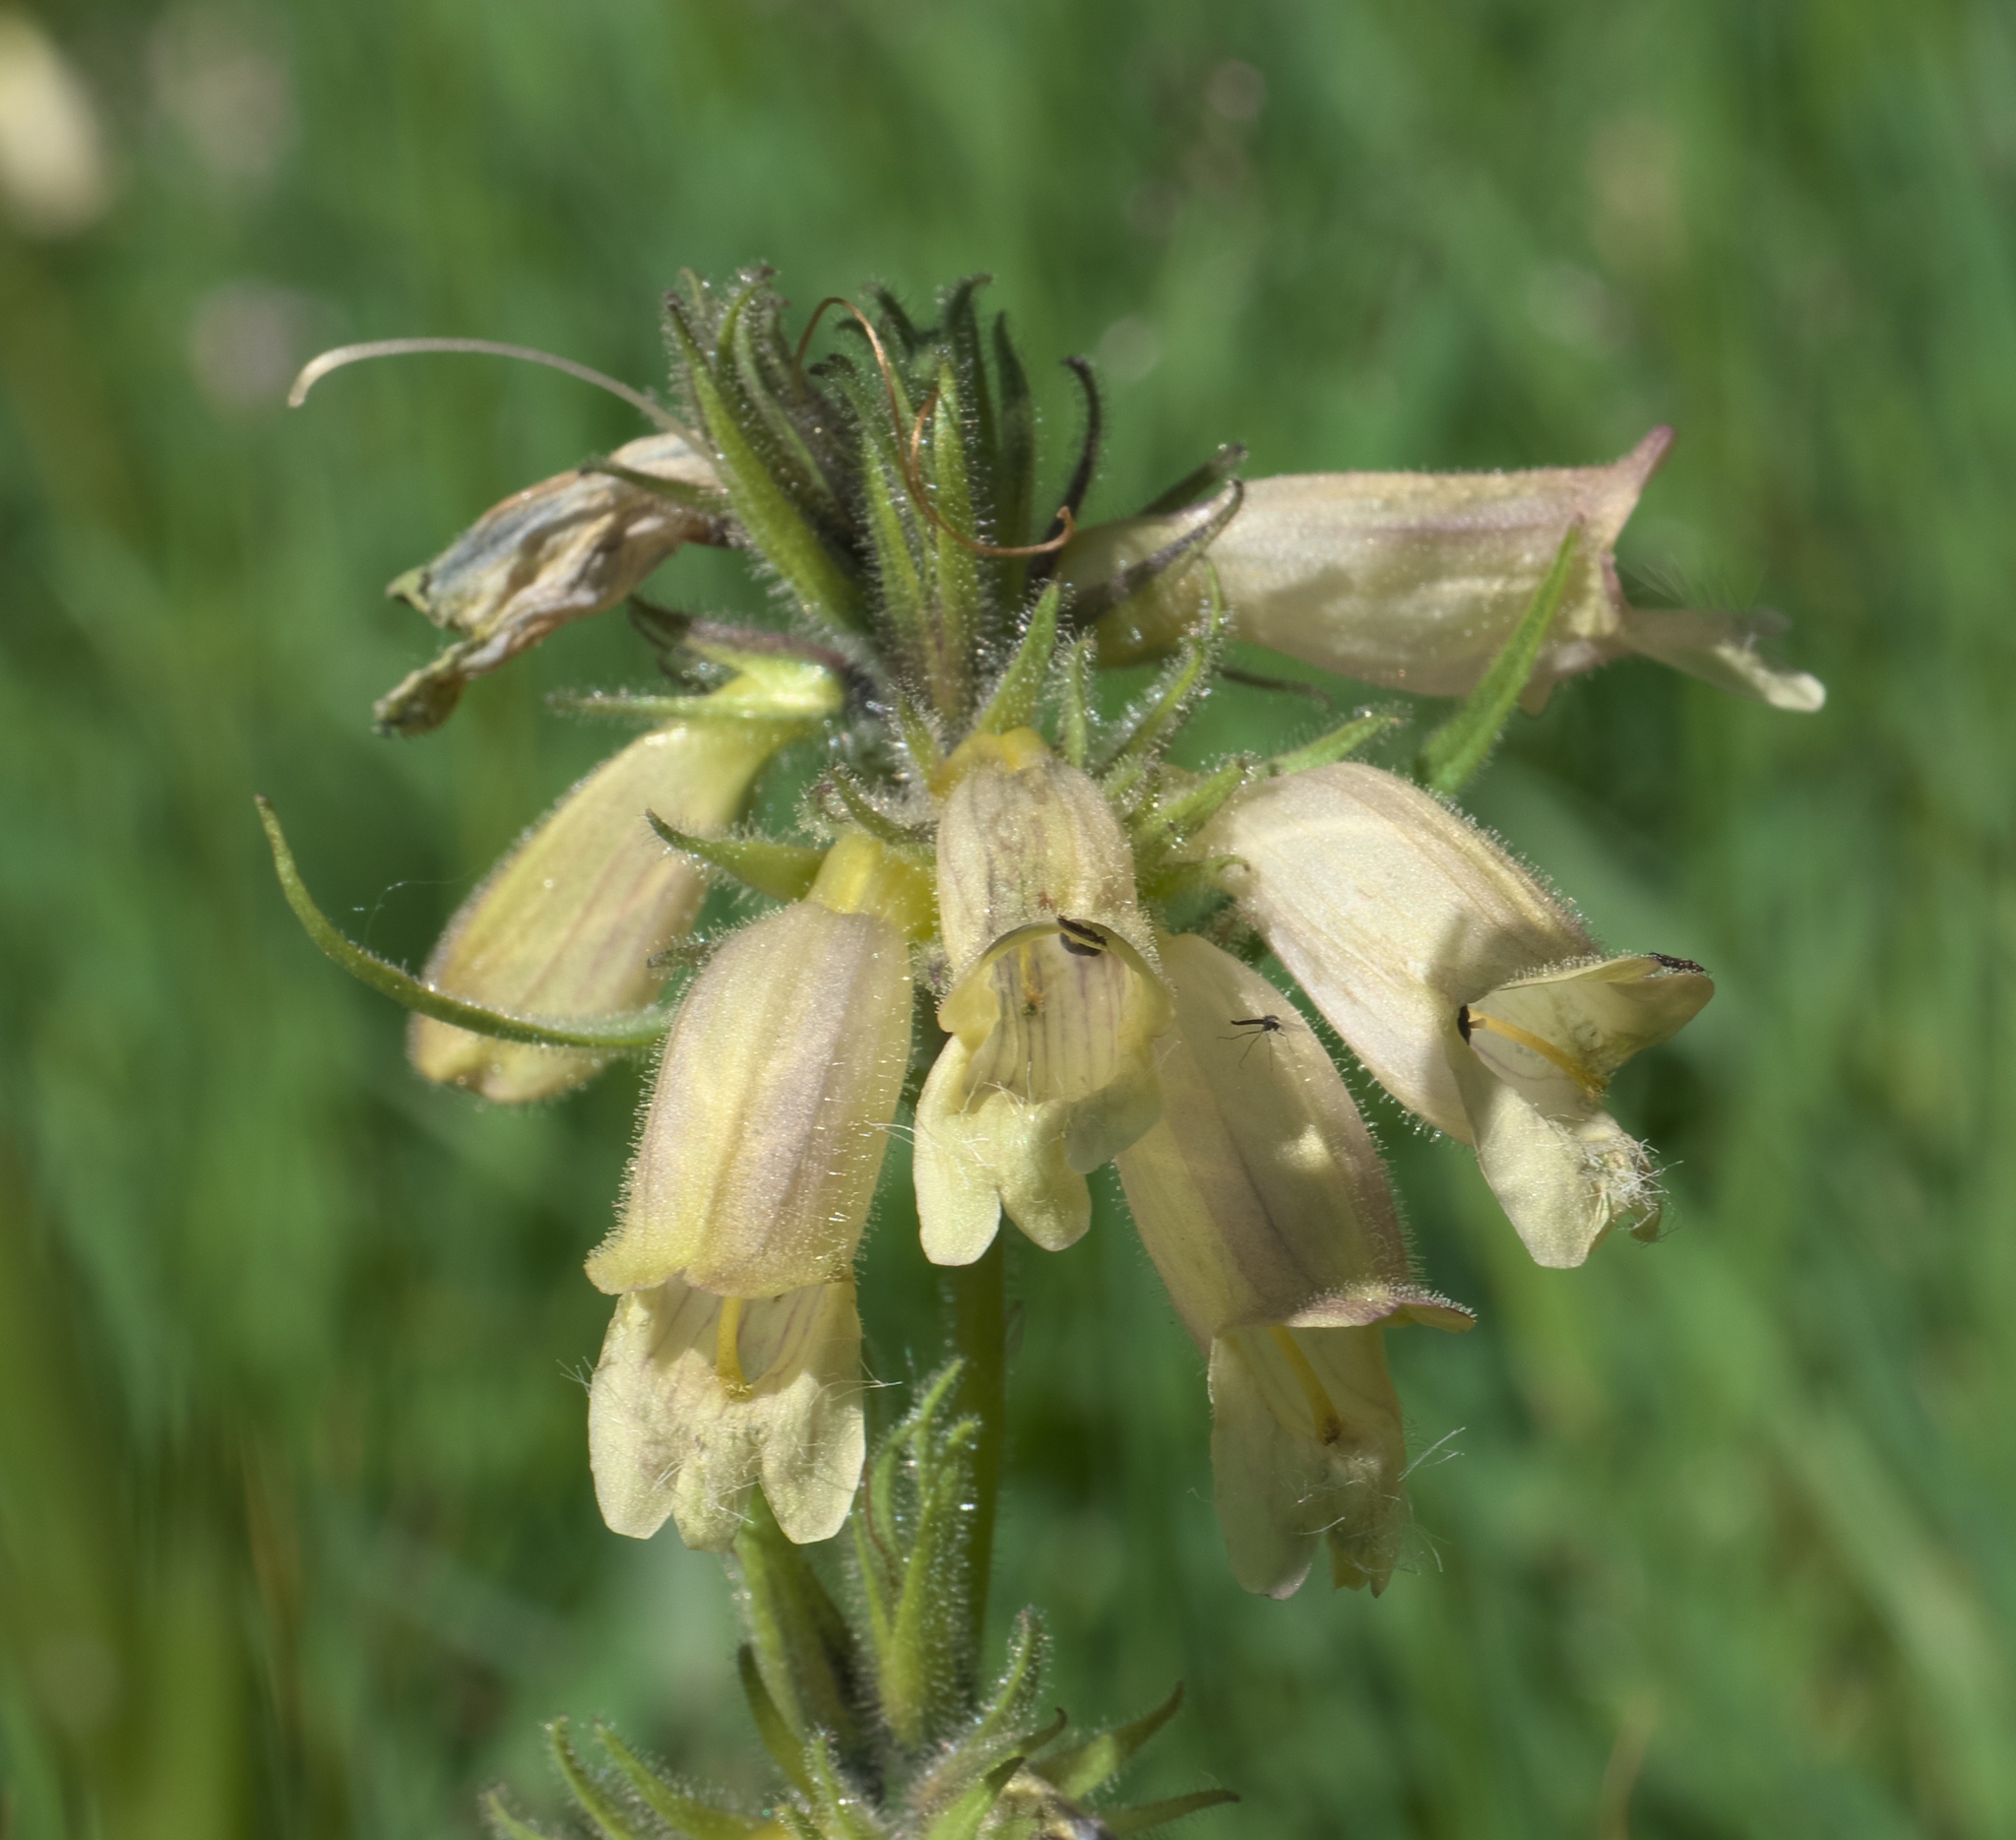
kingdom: Plantae
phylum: Tracheophyta
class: Magnoliopsida
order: Lamiales
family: Plantaginaceae
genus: Penstemon
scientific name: Penstemon whippleanus
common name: Whipple's penstemon
